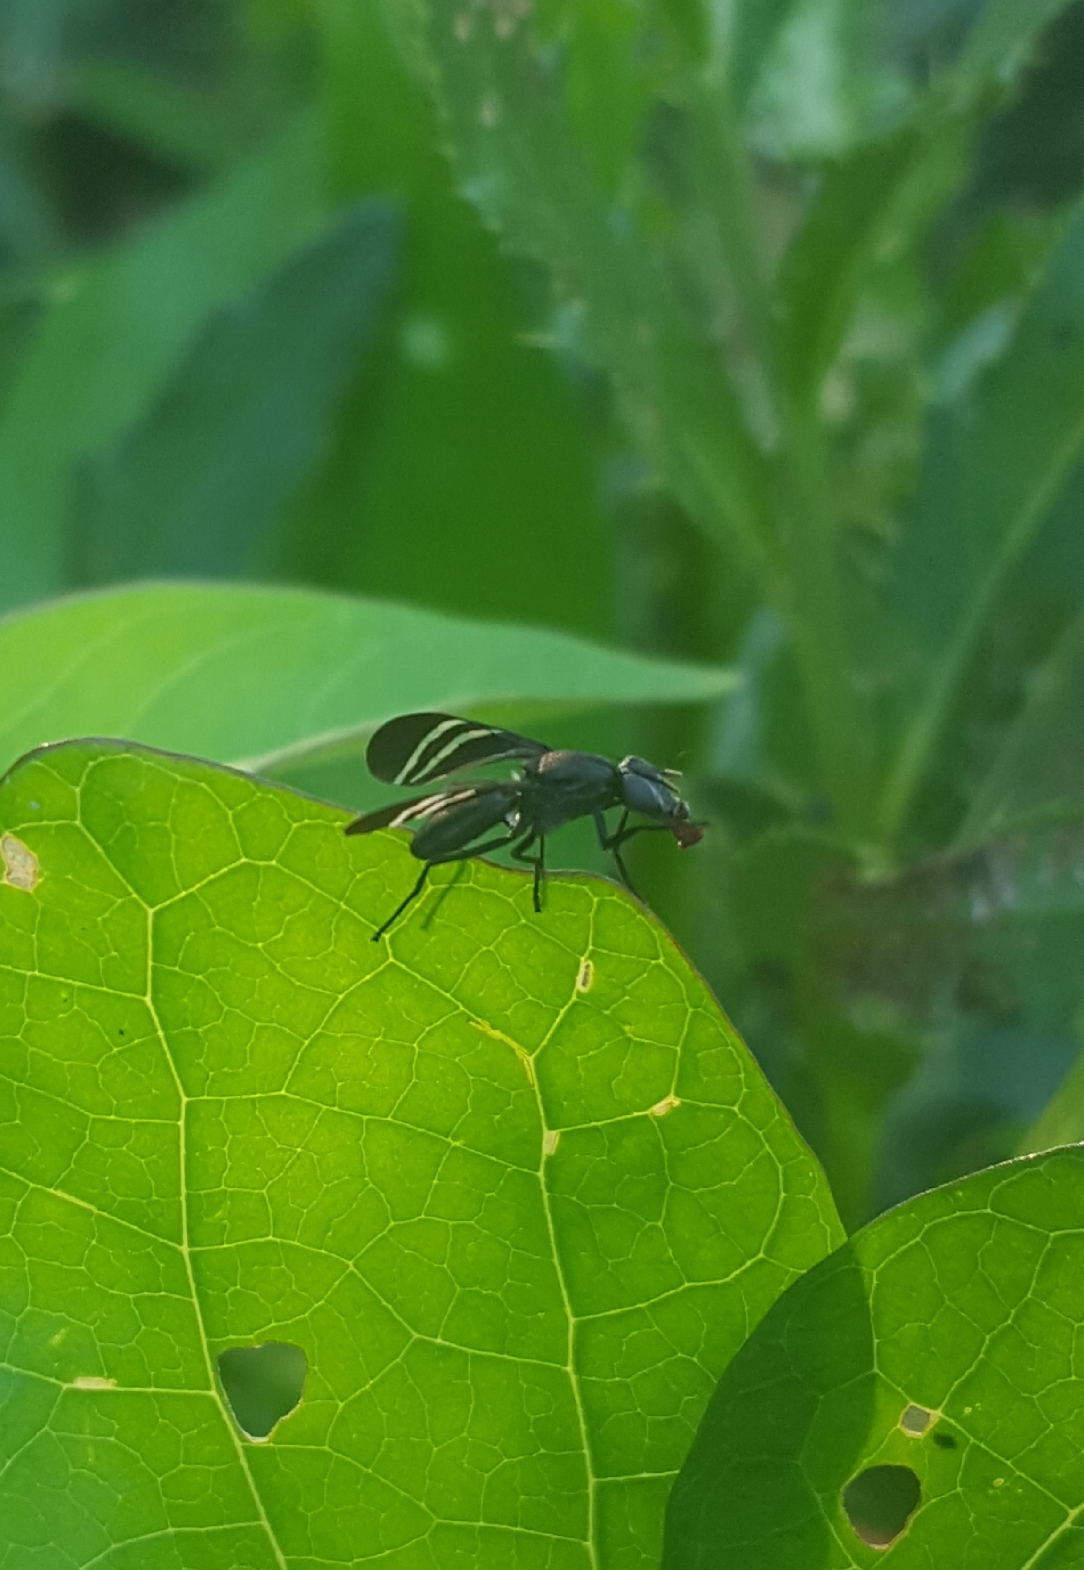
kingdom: Animalia
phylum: Arthropoda
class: Insecta
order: Diptera
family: Ulidiidae
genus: Tritoxa
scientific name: Tritoxa flexa
